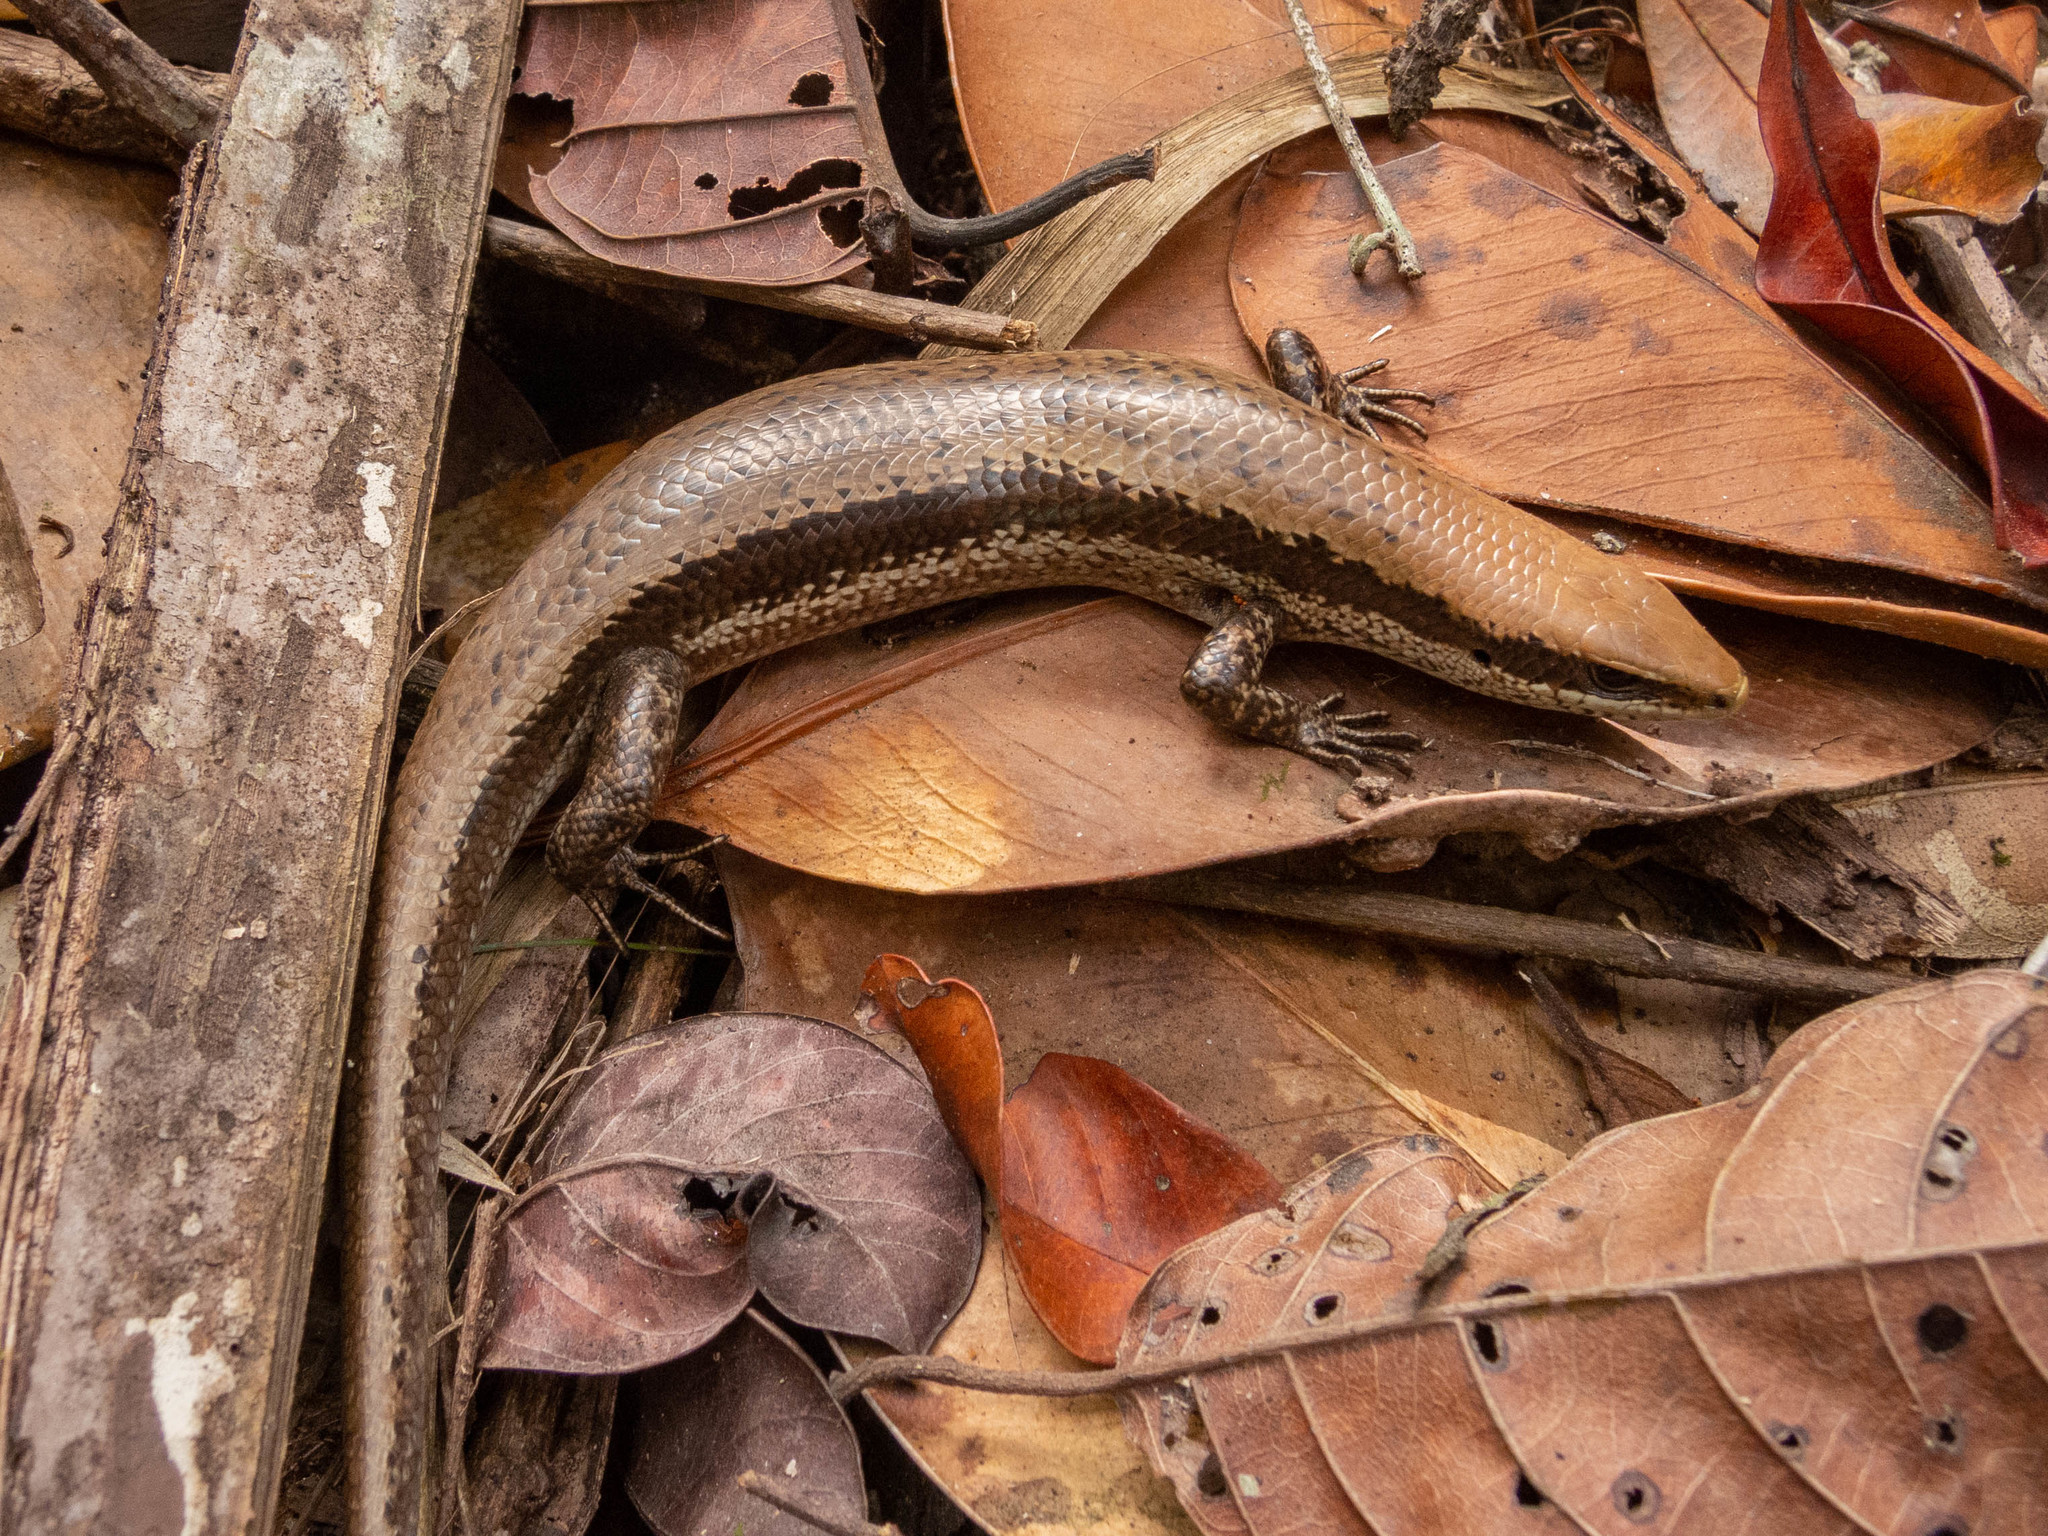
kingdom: Animalia
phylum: Chordata
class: Squamata
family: Scincidae
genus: Copeoglossum
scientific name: Copeoglossum nigropunctatum
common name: Black-spotted skink
